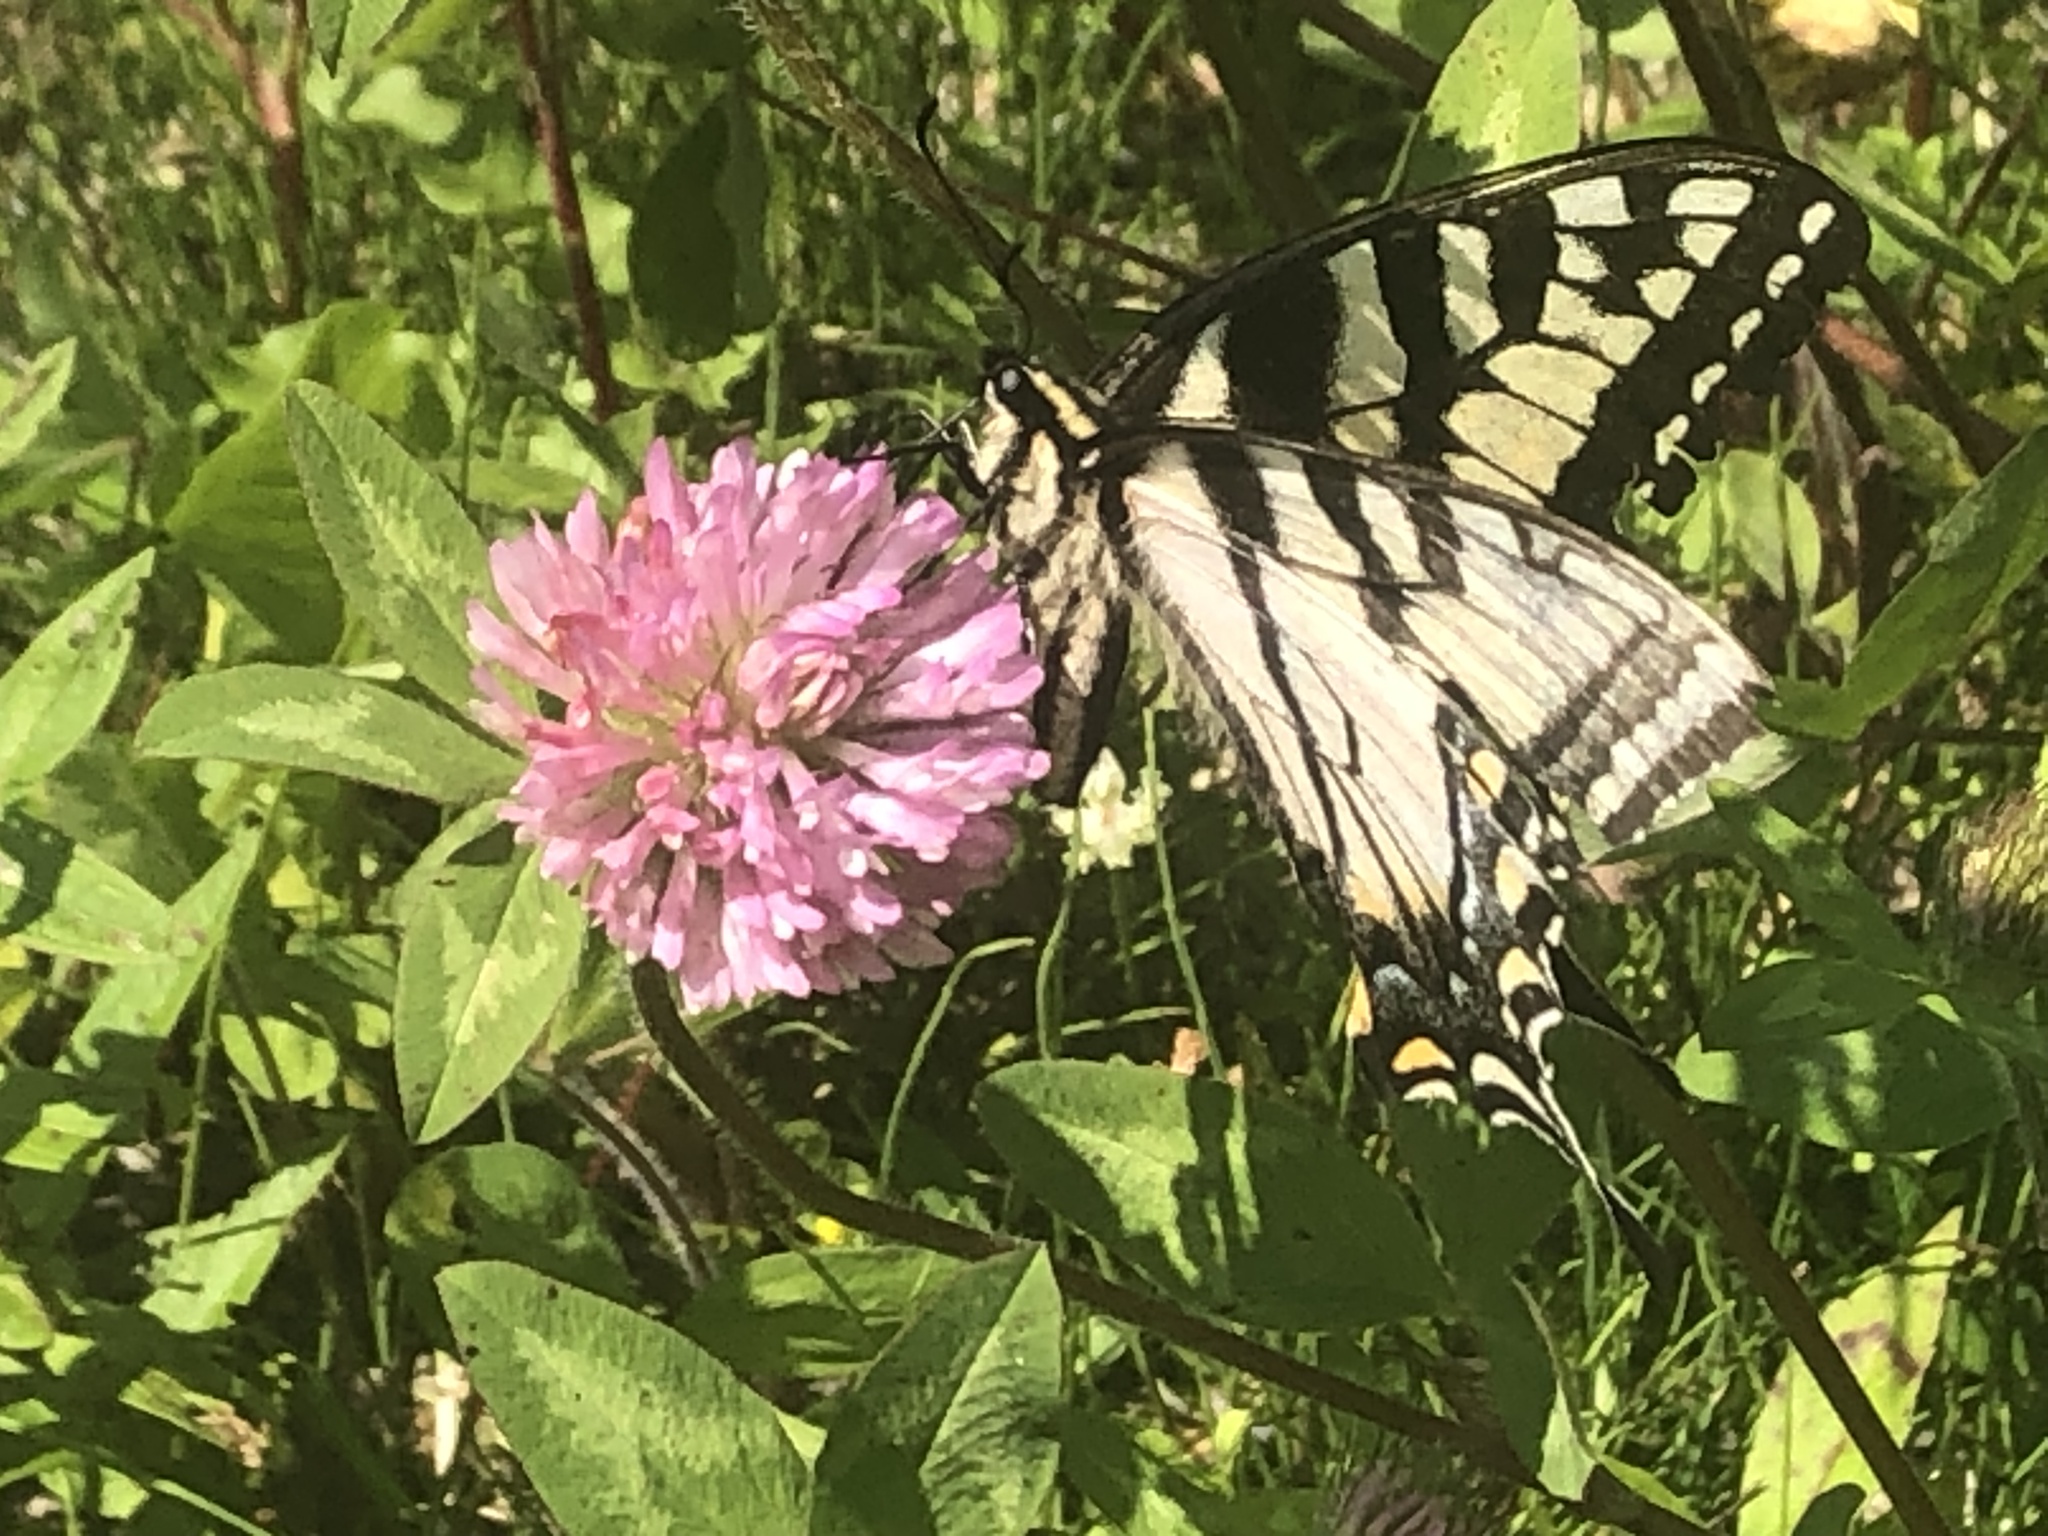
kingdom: Animalia
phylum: Arthropoda
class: Insecta
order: Lepidoptera
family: Papilionidae
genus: Papilio
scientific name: Papilio canadensis
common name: Canadian tiger swallowtail
